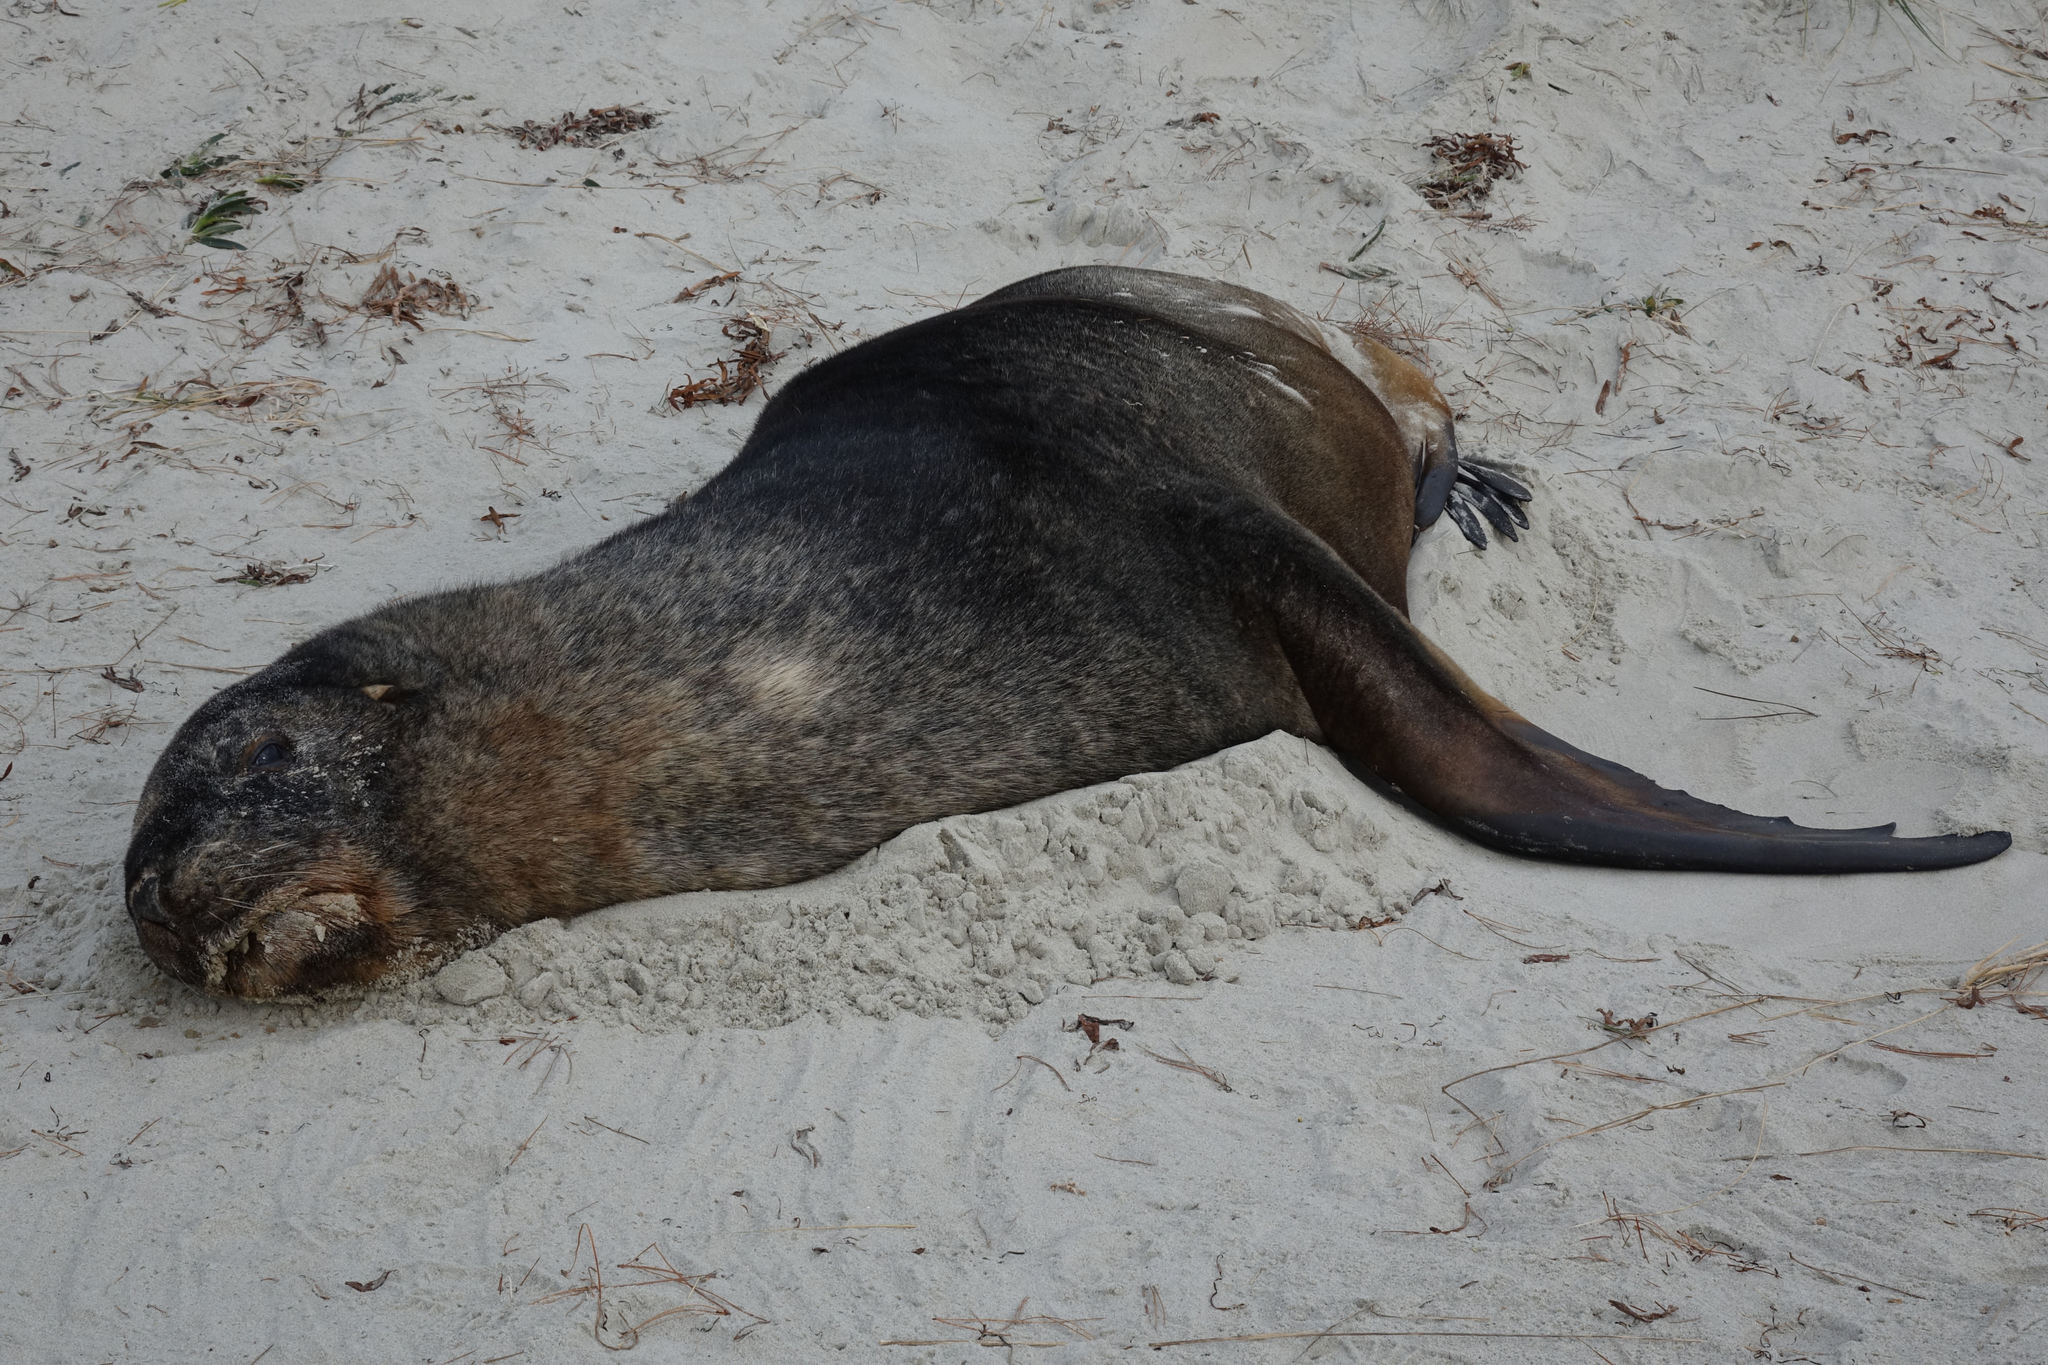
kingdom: Animalia
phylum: Chordata
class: Mammalia
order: Carnivora
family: Otariidae
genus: Phocarctos
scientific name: Phocarctos hookeri
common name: New zealand sea lion
